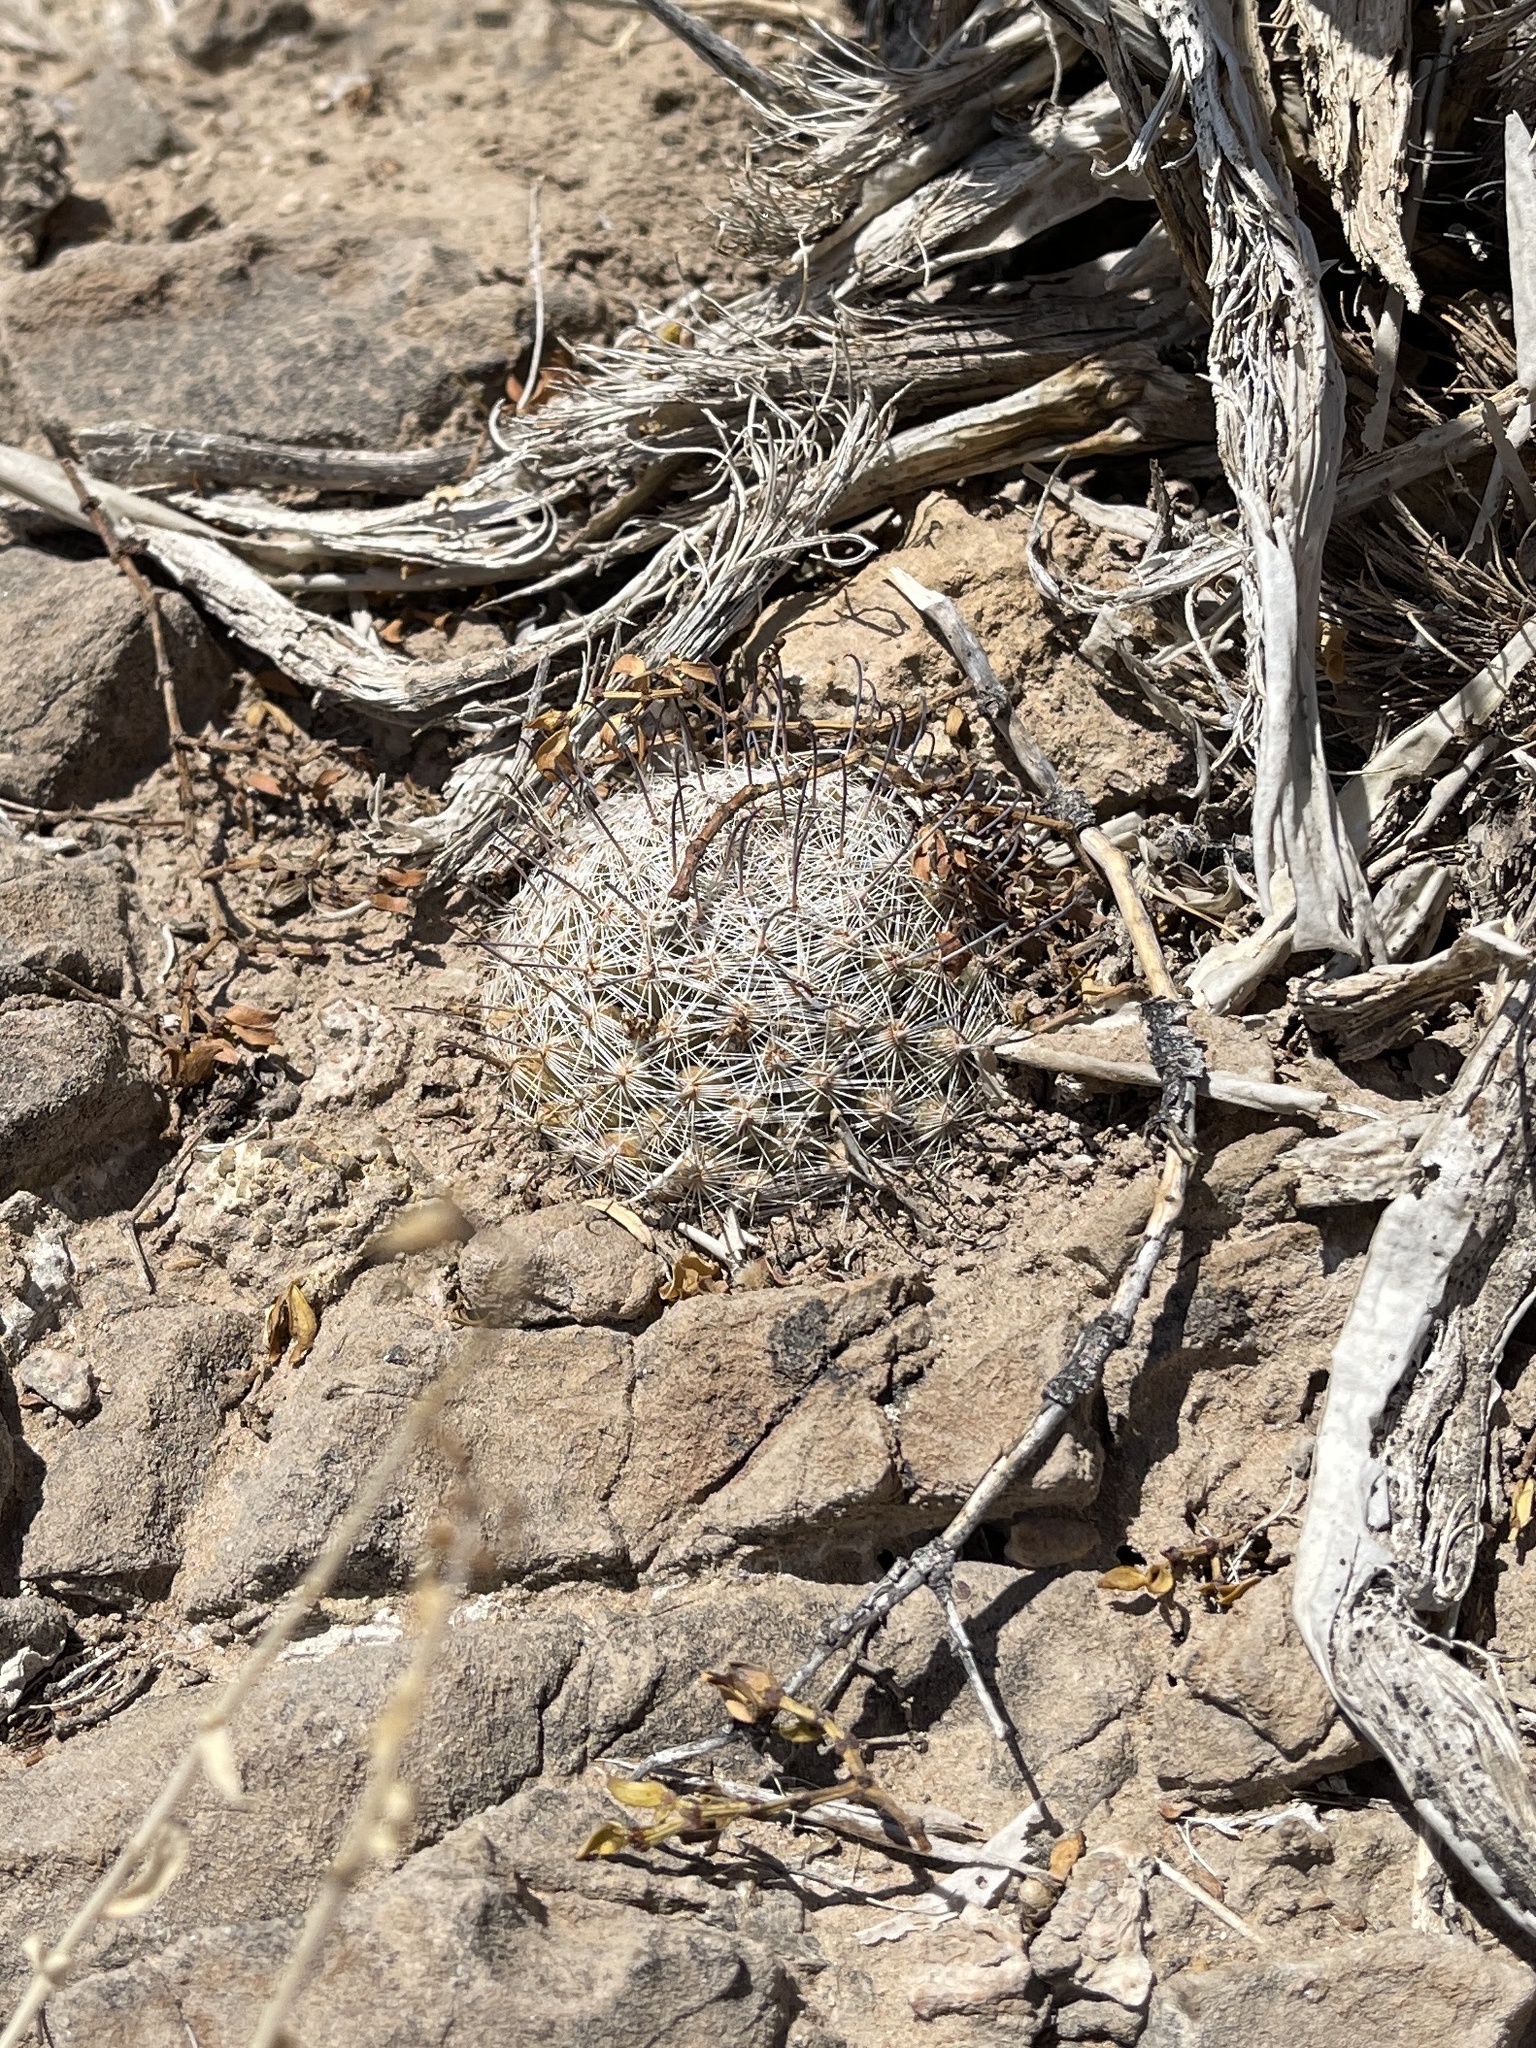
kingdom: Plantae
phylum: Tracheophyta
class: Magnoliopsida
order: Caryophyllales
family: Cactaceae
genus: Cochemiea
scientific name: Cochemiea grahamii
